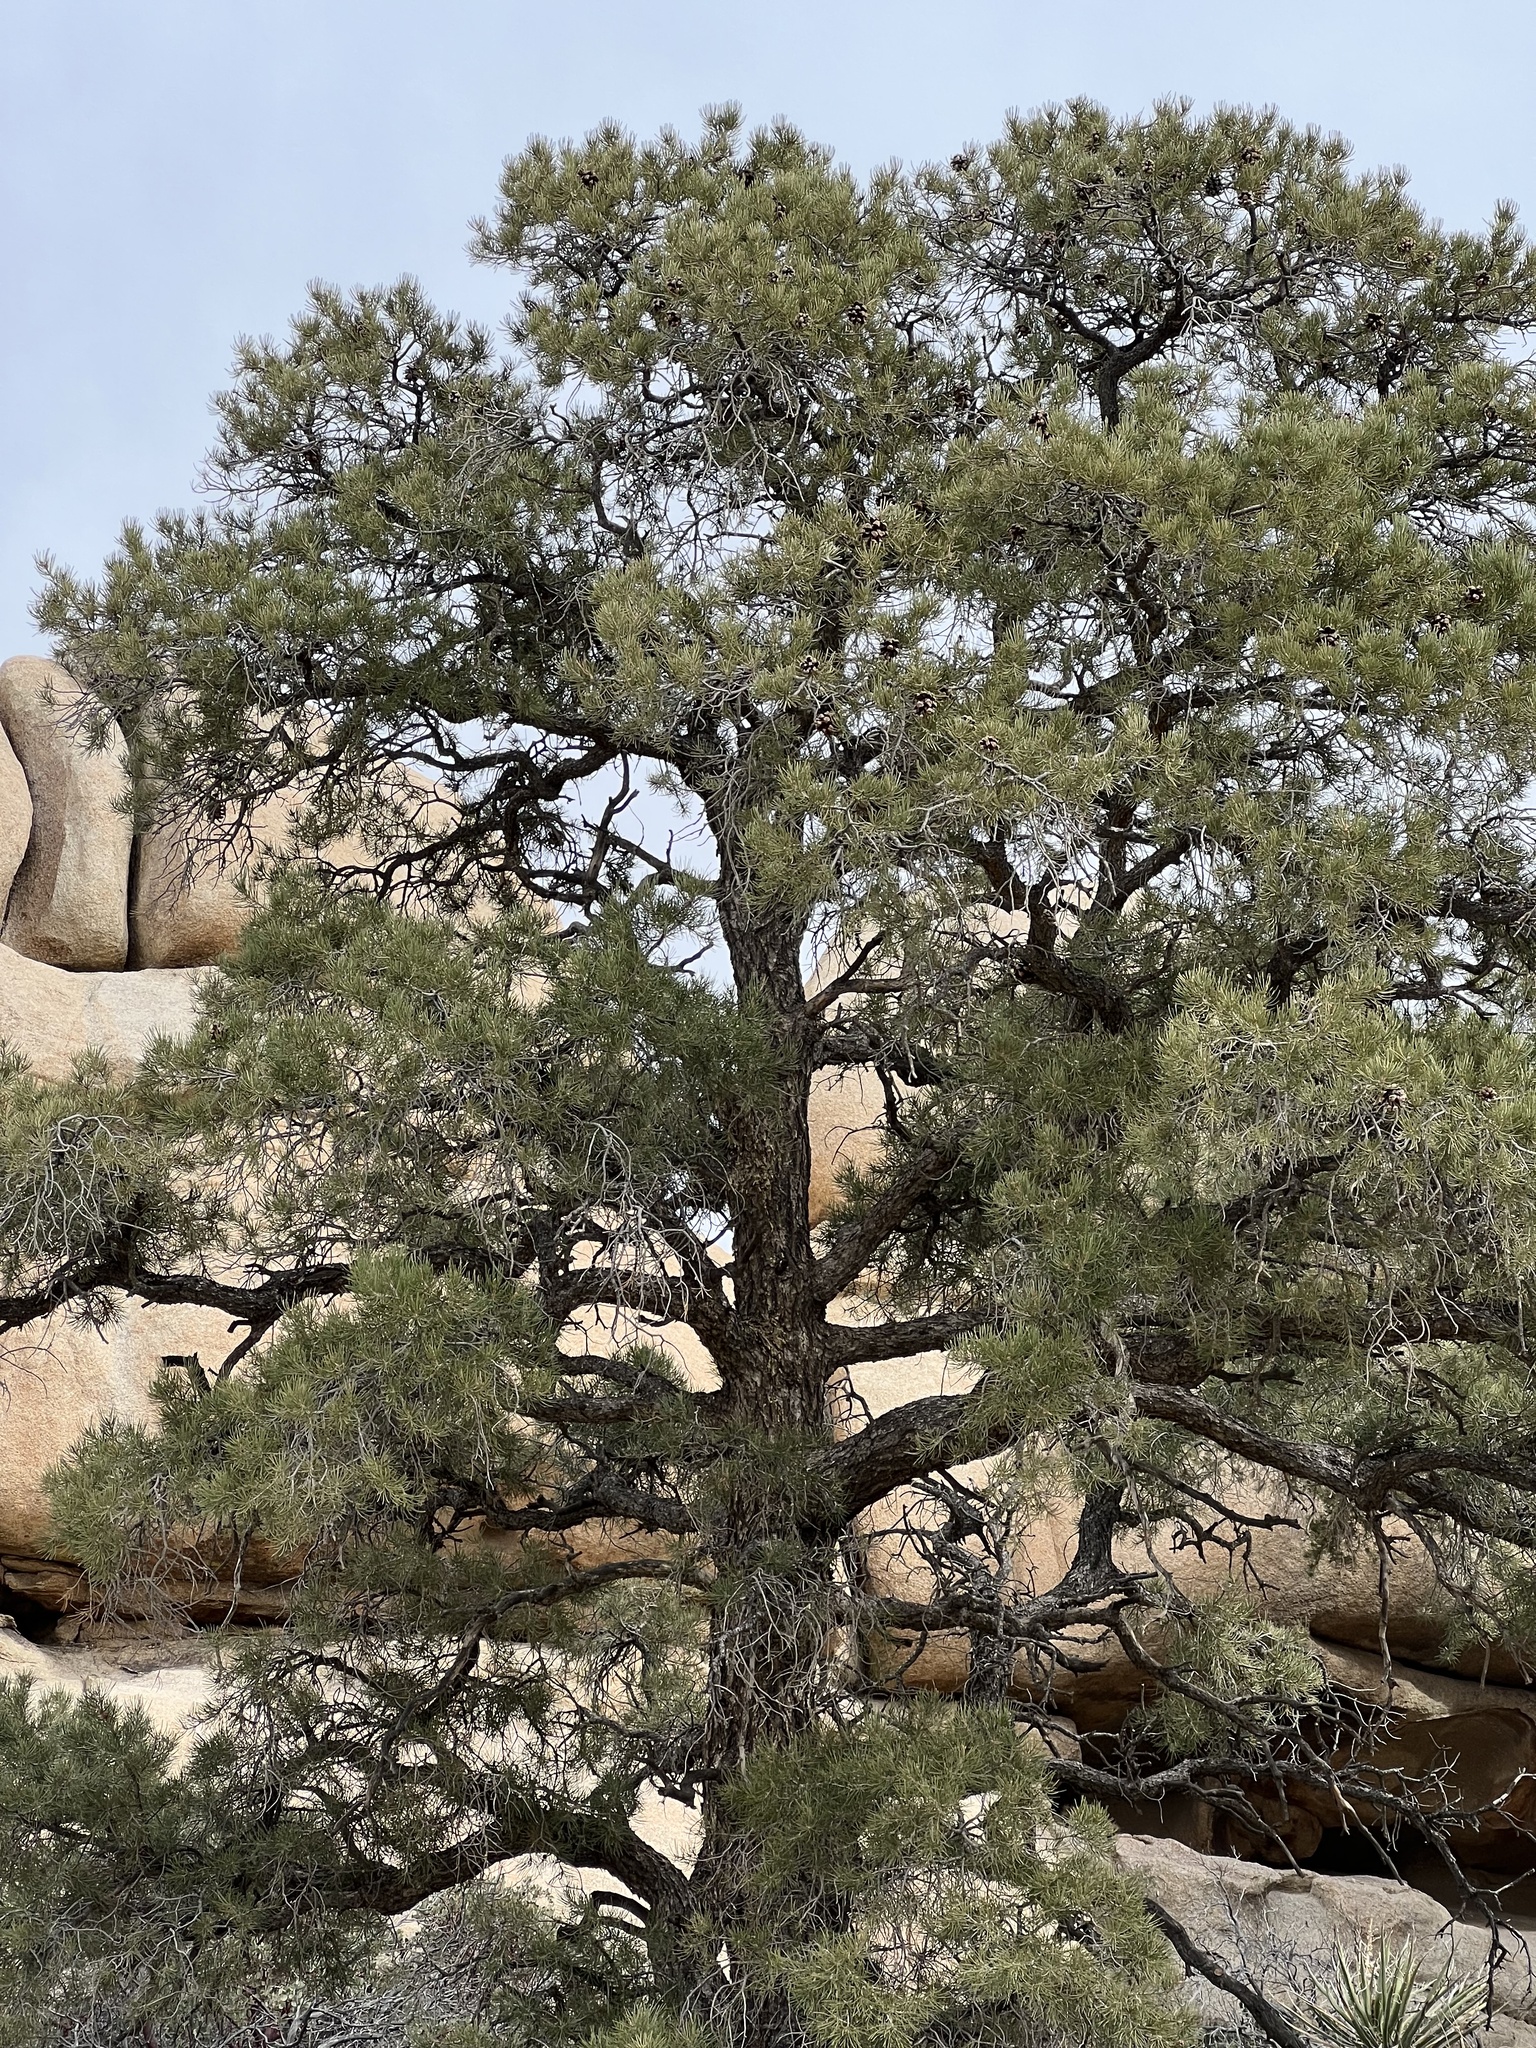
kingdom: Plantae
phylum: Tracheophyta
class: Pinopsida
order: Pinales
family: Pinaceae
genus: Pinus
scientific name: Pinus monophylla
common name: One-leaved nut pine
